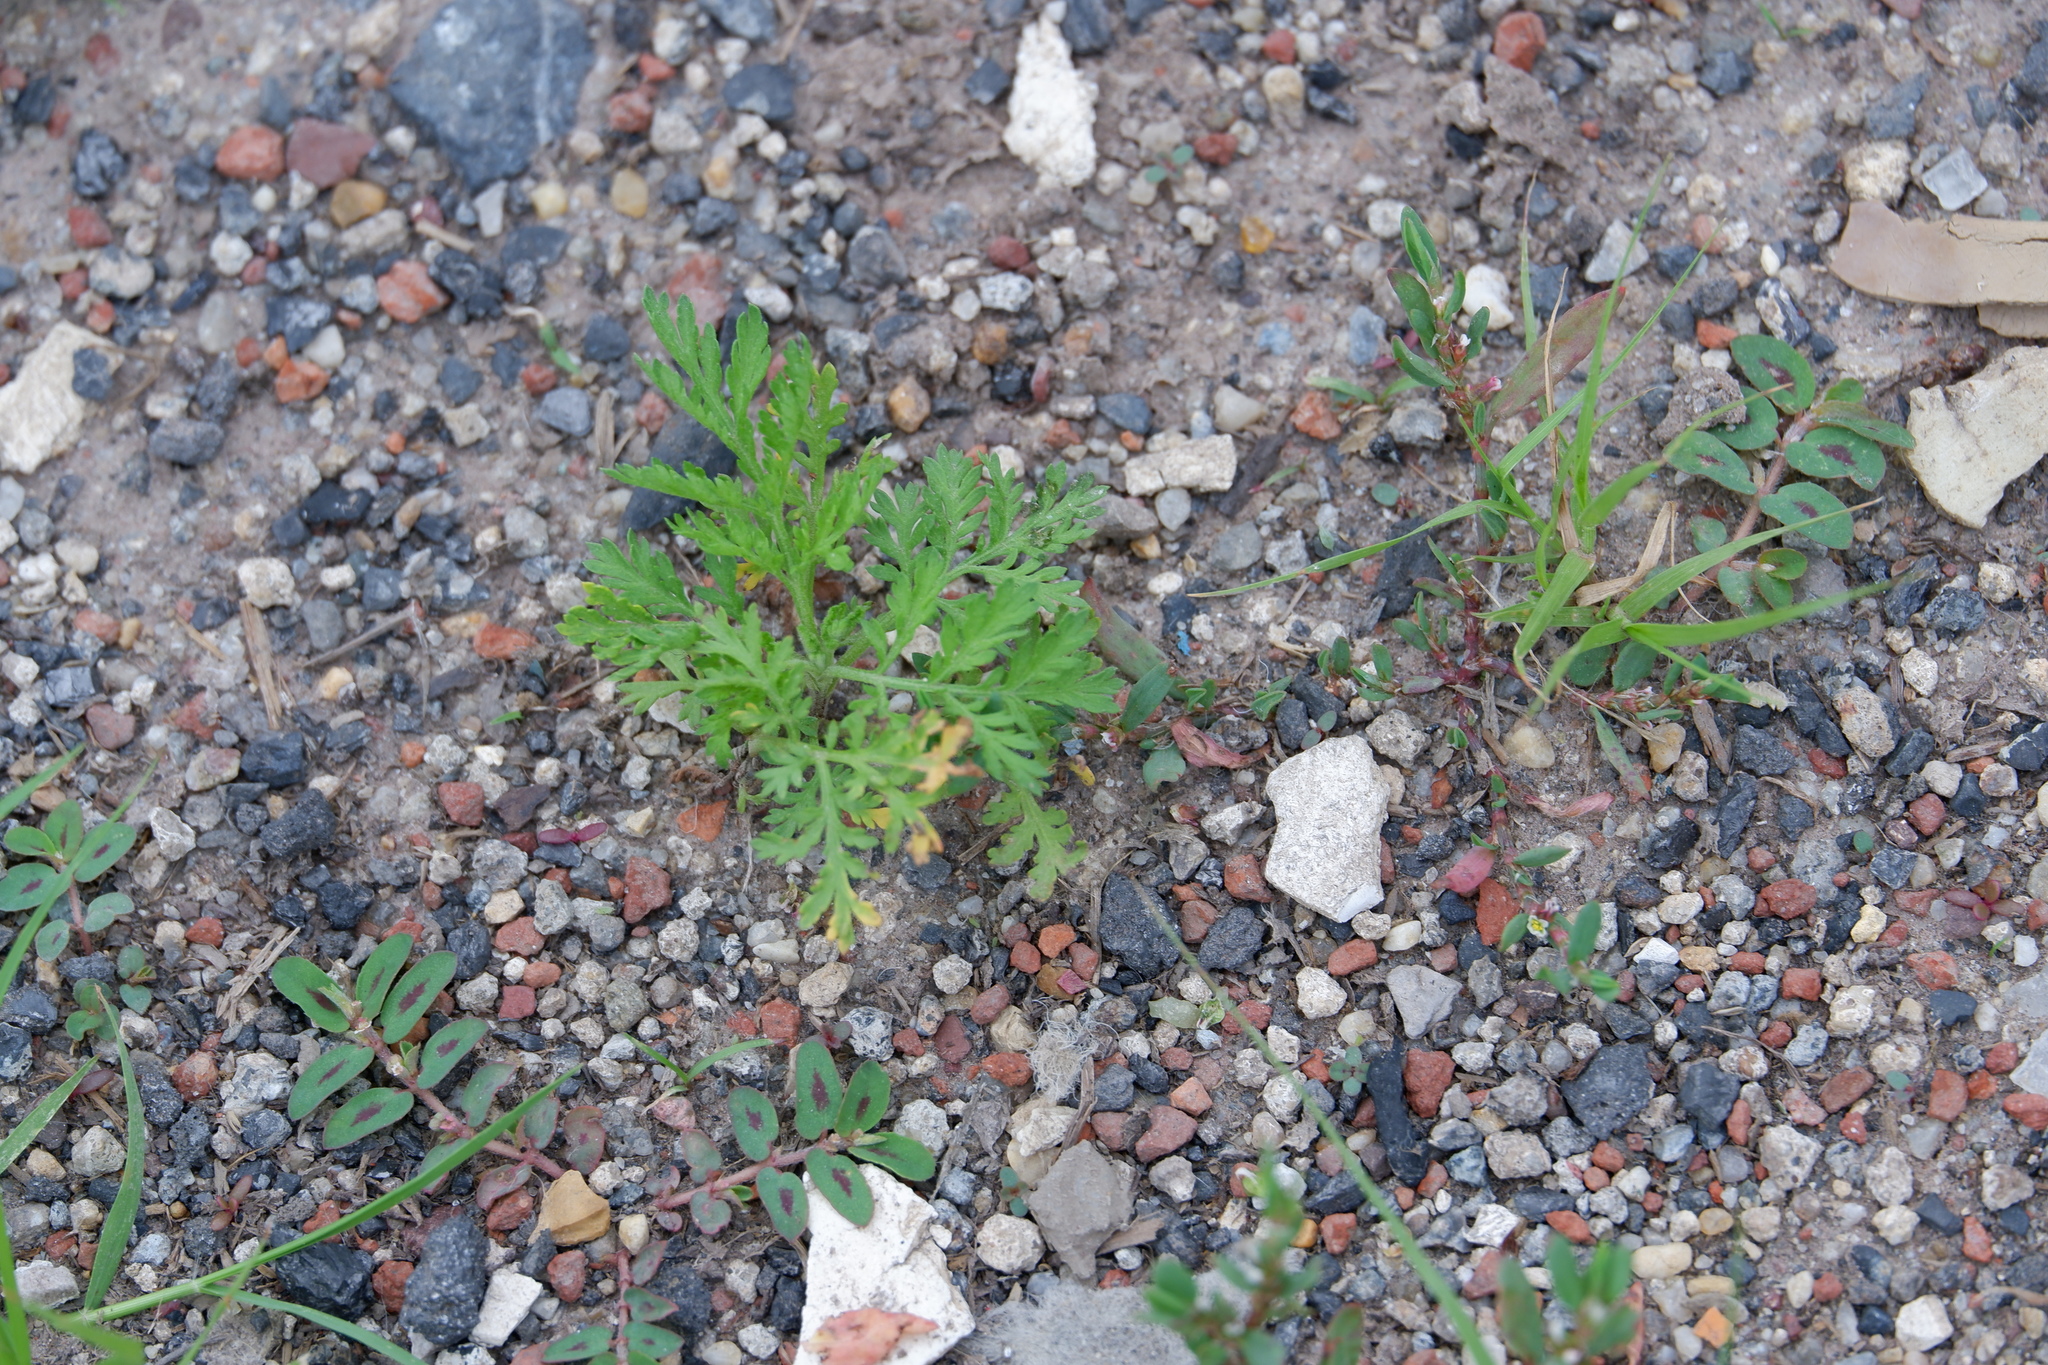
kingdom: Plantae
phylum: Tracheophyta
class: Magnoliopsida
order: Asterales
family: Asteraceae
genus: Artemisia
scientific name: Artemisia annua
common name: Sweet sagewort
